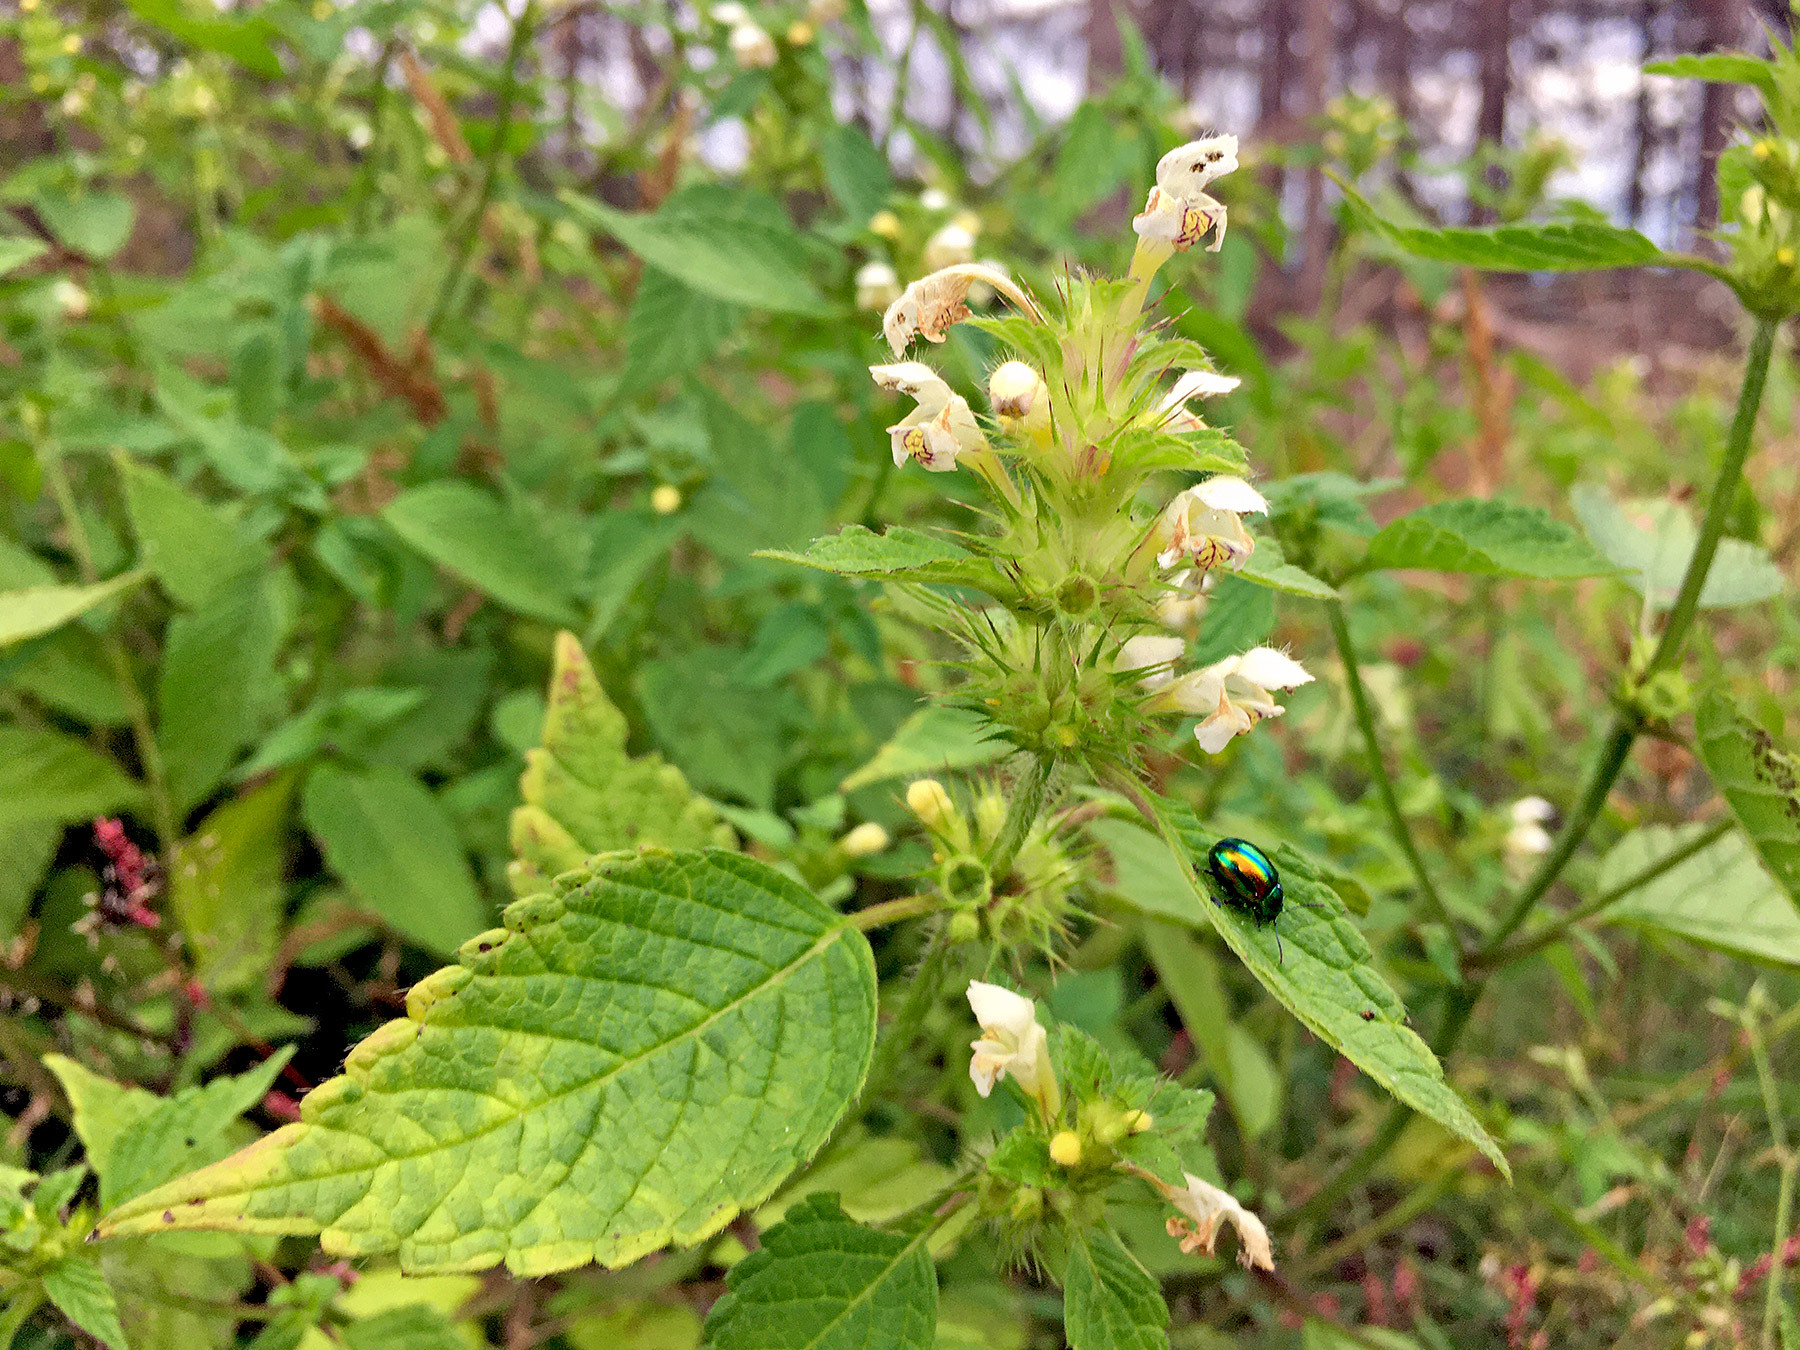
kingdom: Plantae
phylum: Tracheophyta
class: Magnoliopsida
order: Lamiales
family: Lamiaceae
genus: Galeopsis
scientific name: Galeopsis tetrahit
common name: Common hemp-nettle
